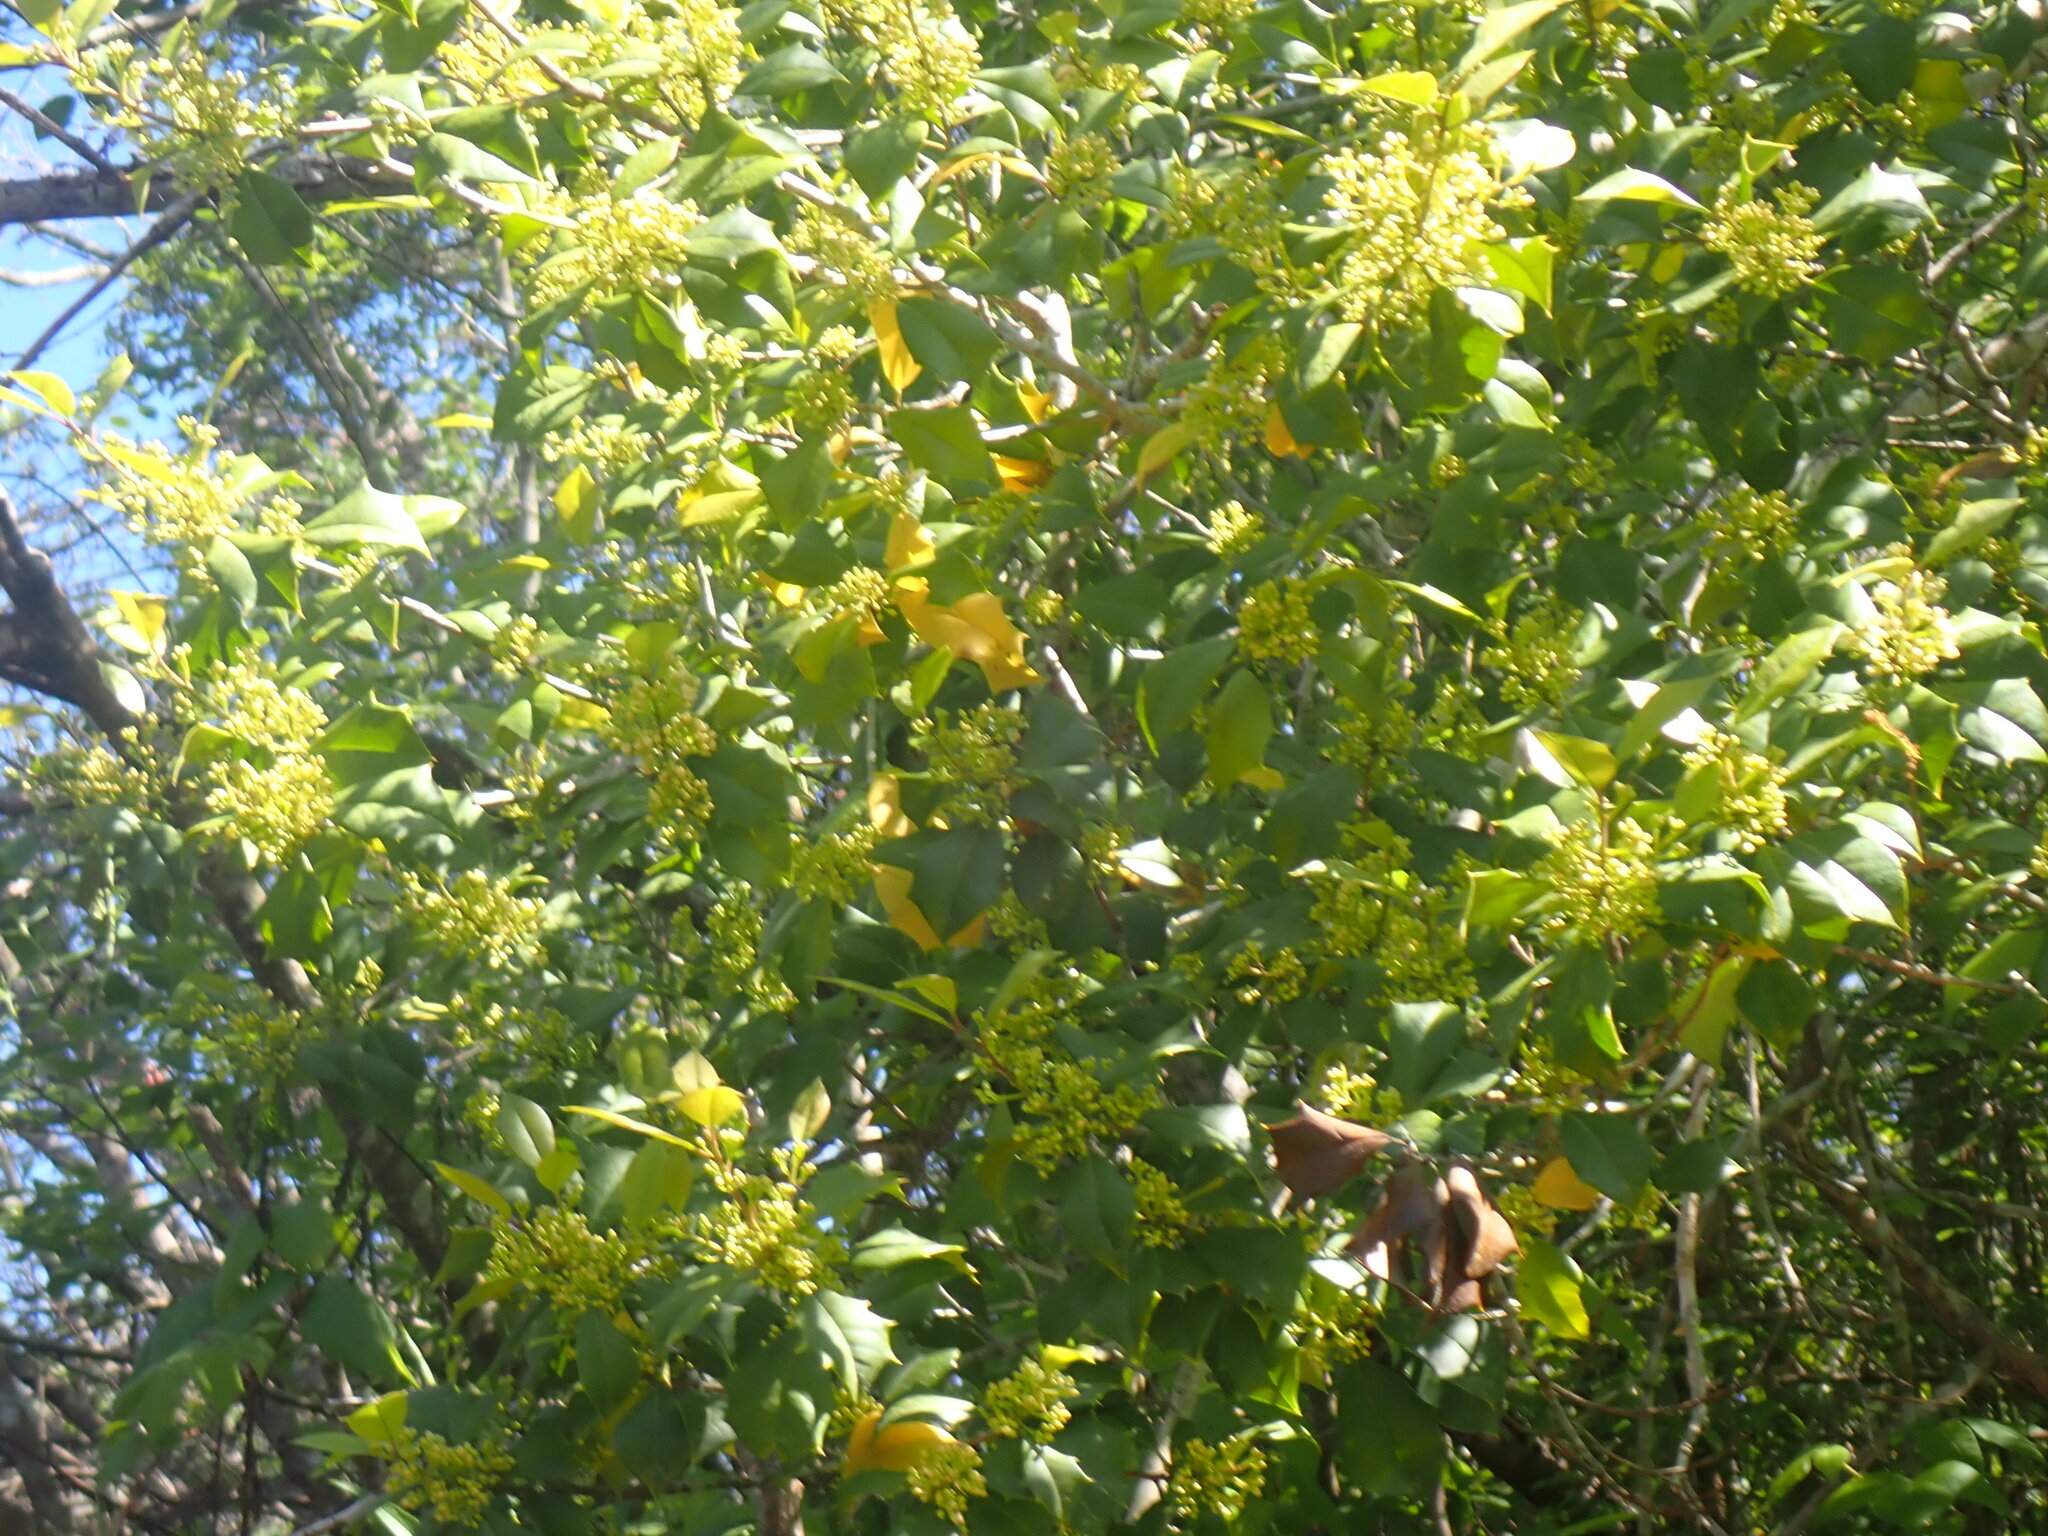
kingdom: Plantae
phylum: Tracheophyta
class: Magnoliopsida
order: Aquifoliales
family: Aquifoliaceae
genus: Ilex
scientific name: Ilex opaca
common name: American holly
